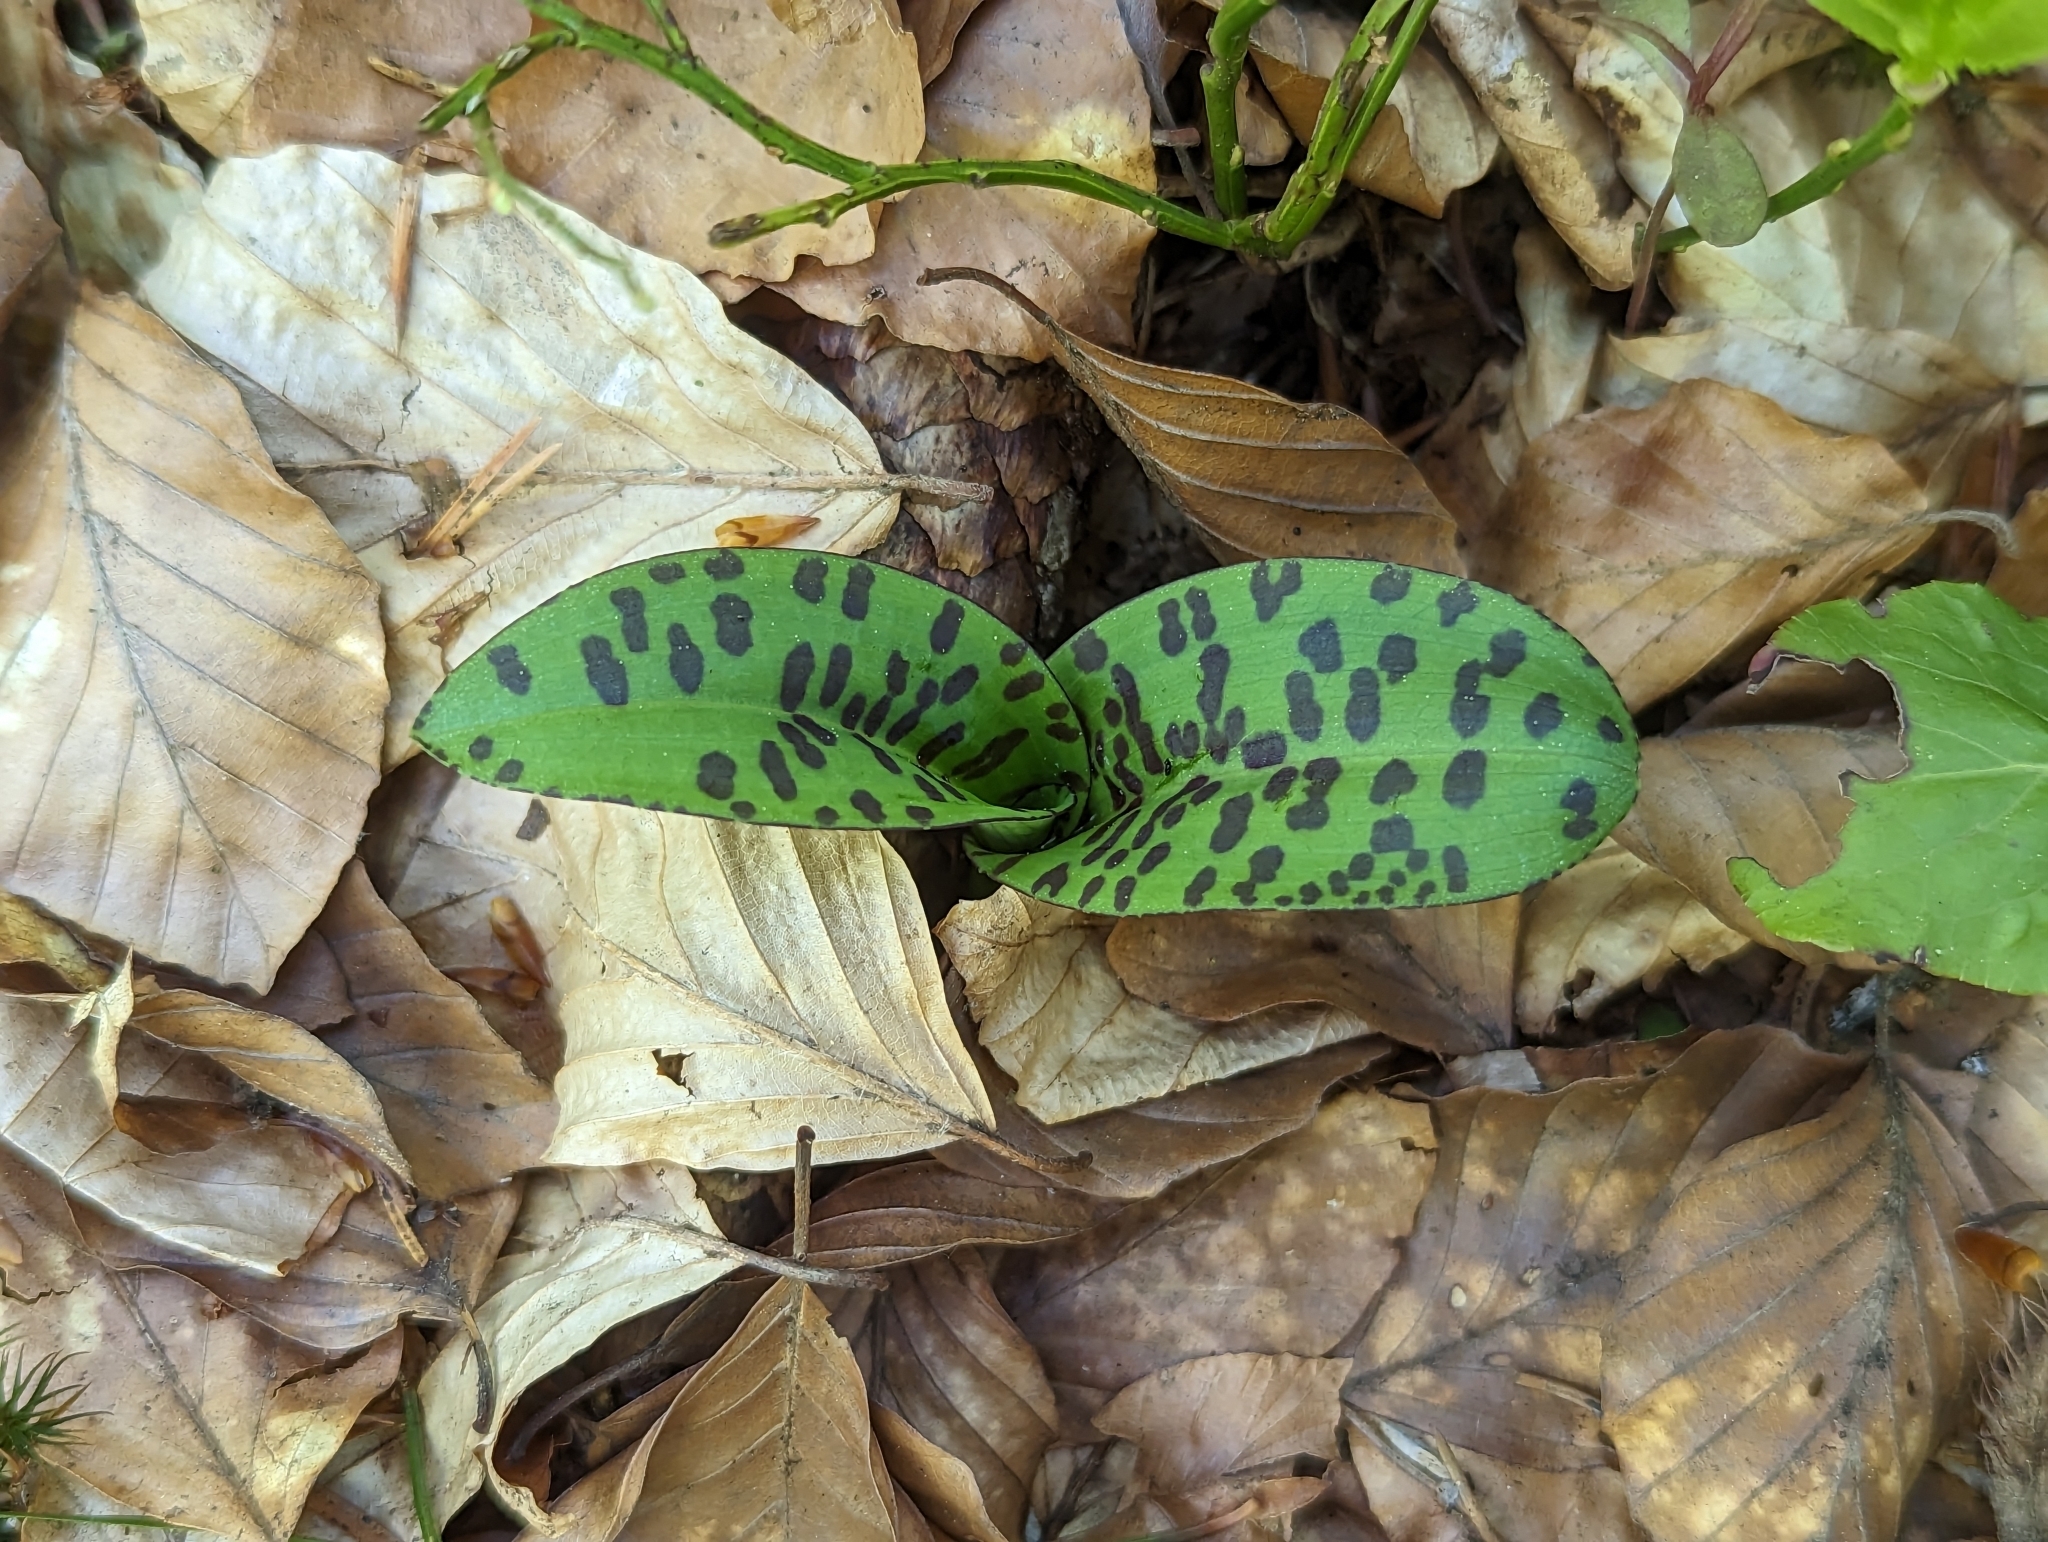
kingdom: Plantae
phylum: Tracheophyta
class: Liliopsida
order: Asparagales
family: Orchidaceae
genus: Dactylorhiza
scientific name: Dactylorhiza maculata
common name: Heath spotted-orchid
